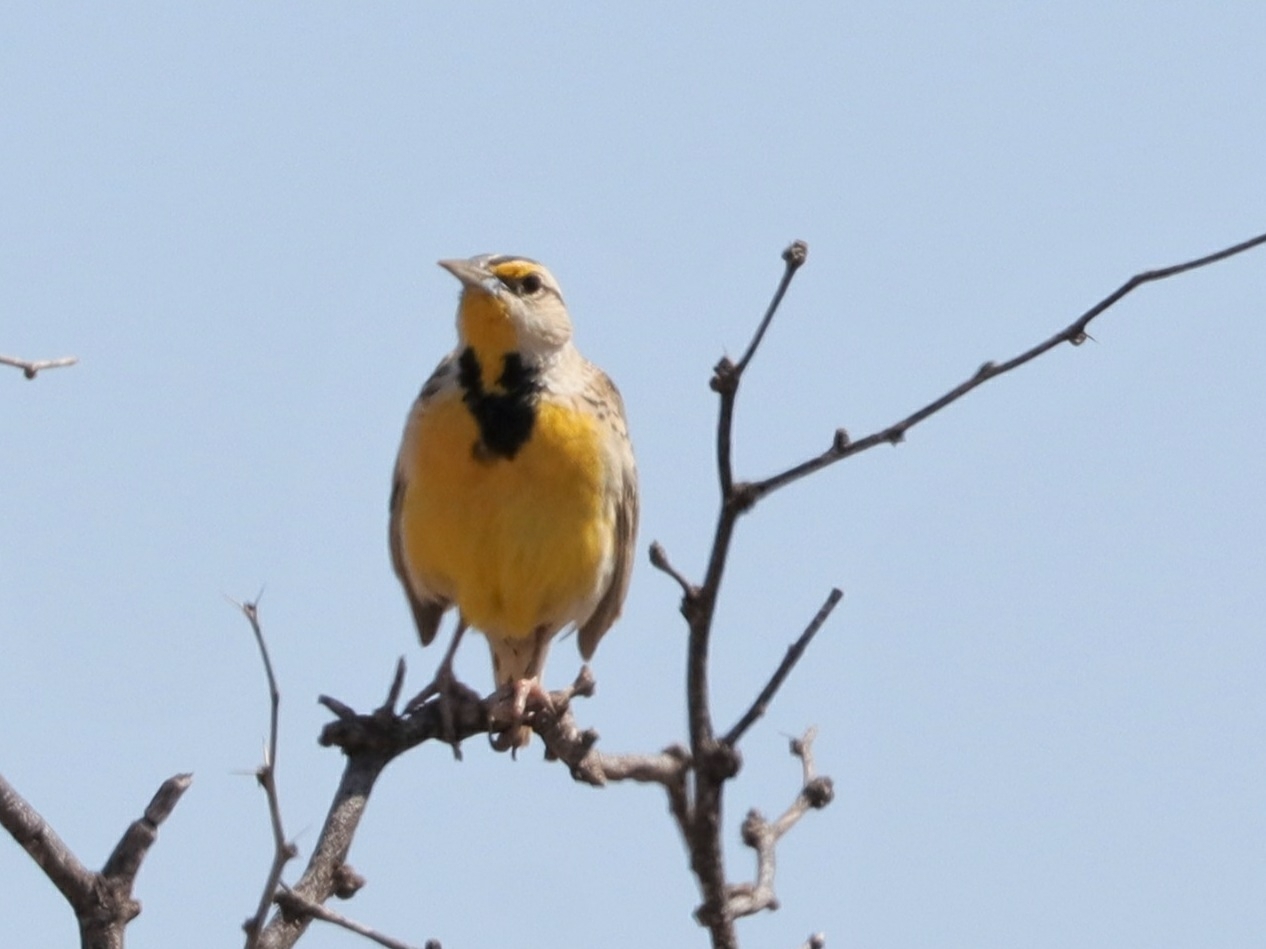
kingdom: Animalia
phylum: Chordata
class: Aves
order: Passeriformes
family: Icteridae
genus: Sturnella
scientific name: Sturnella lilianae
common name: Lilian's meadowlark
